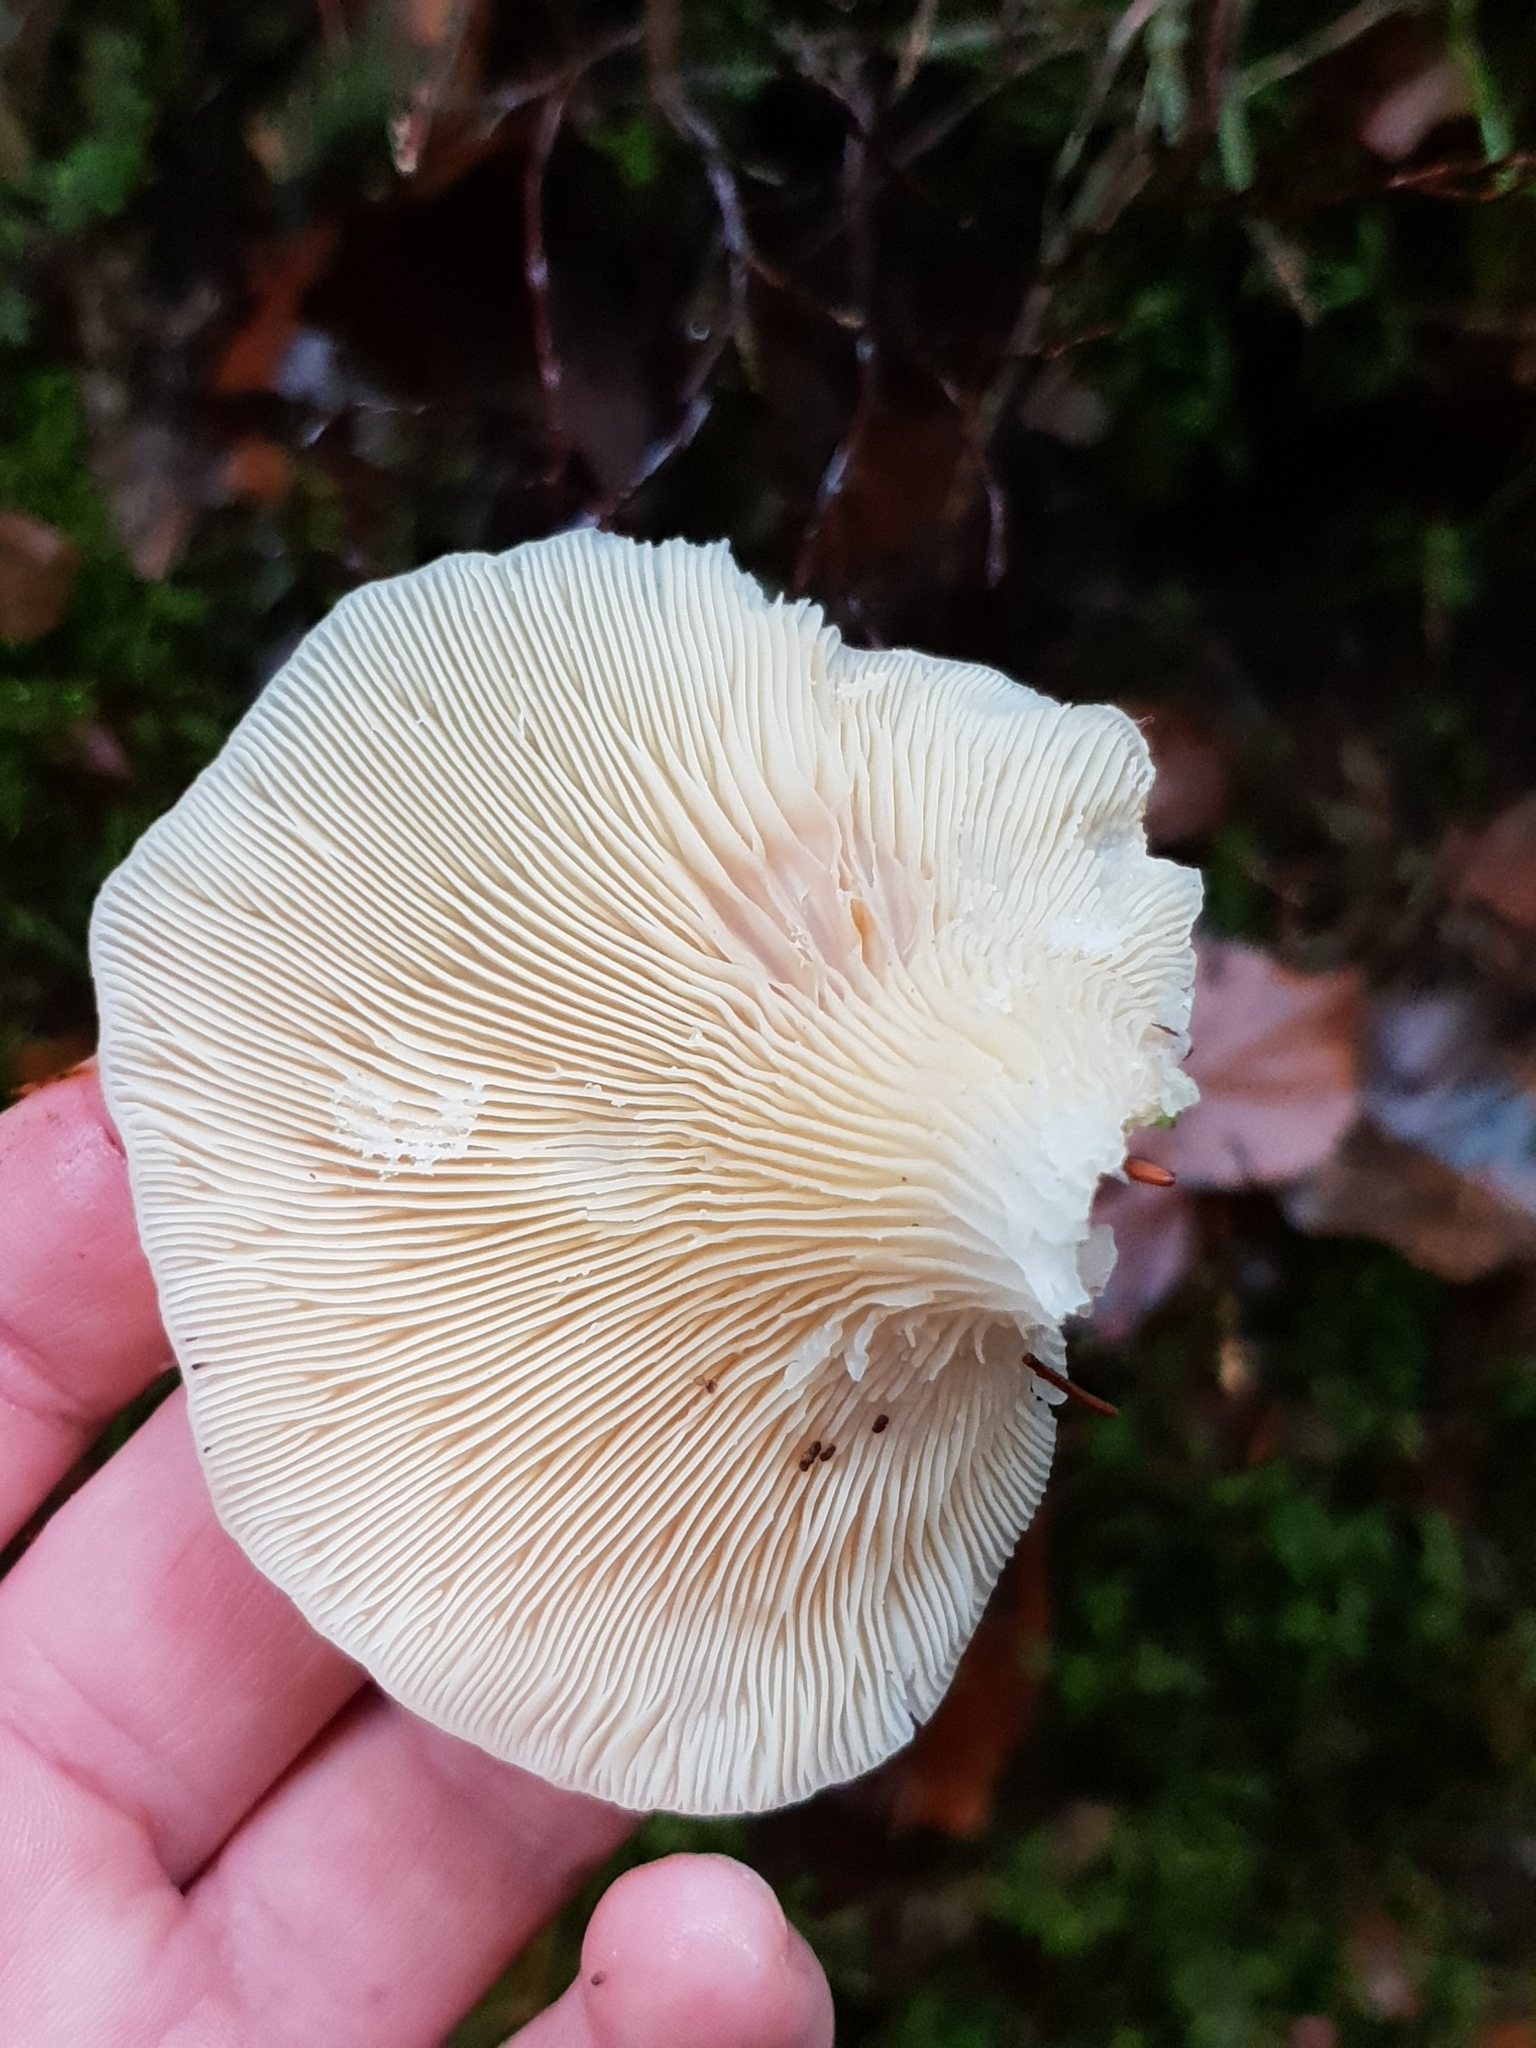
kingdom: Fungi
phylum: Basidiomycota
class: Agaricomycetes
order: Agaricales
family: Marasmiaceae
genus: Pleurocybella
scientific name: Pleurocybella porrigens
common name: Angel's wings
